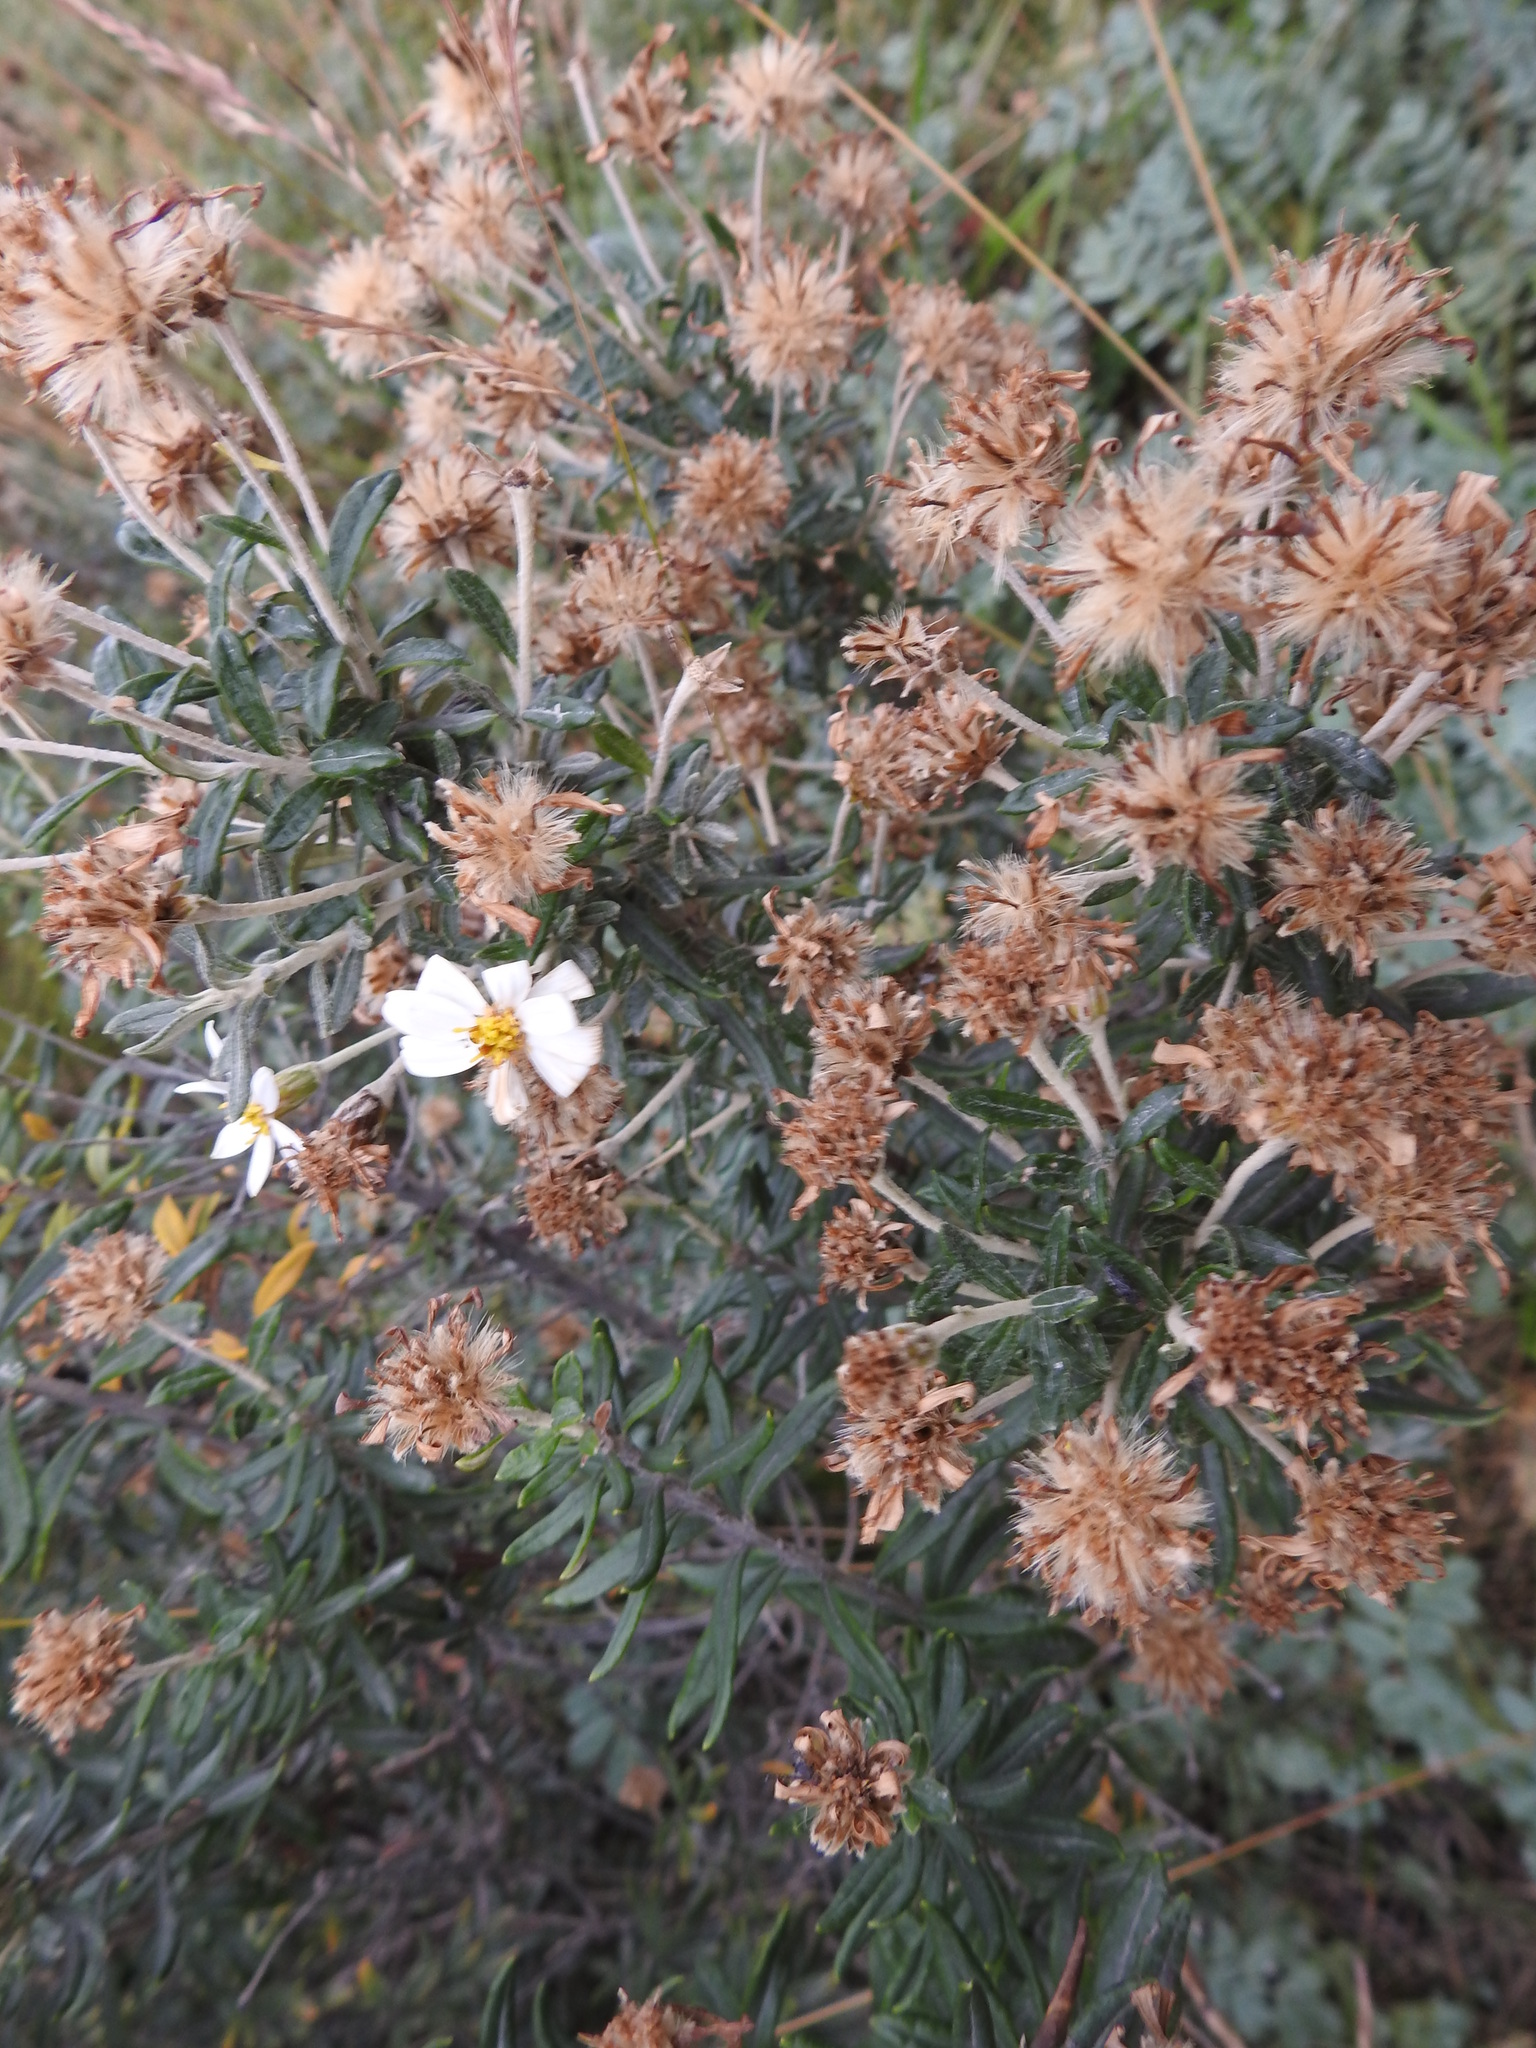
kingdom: Plantae
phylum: Tracheophyta
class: Magnoliopsida
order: Asterales
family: Asteraceae
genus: Chiliotrichum
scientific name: Chiliotrichum diffusum
